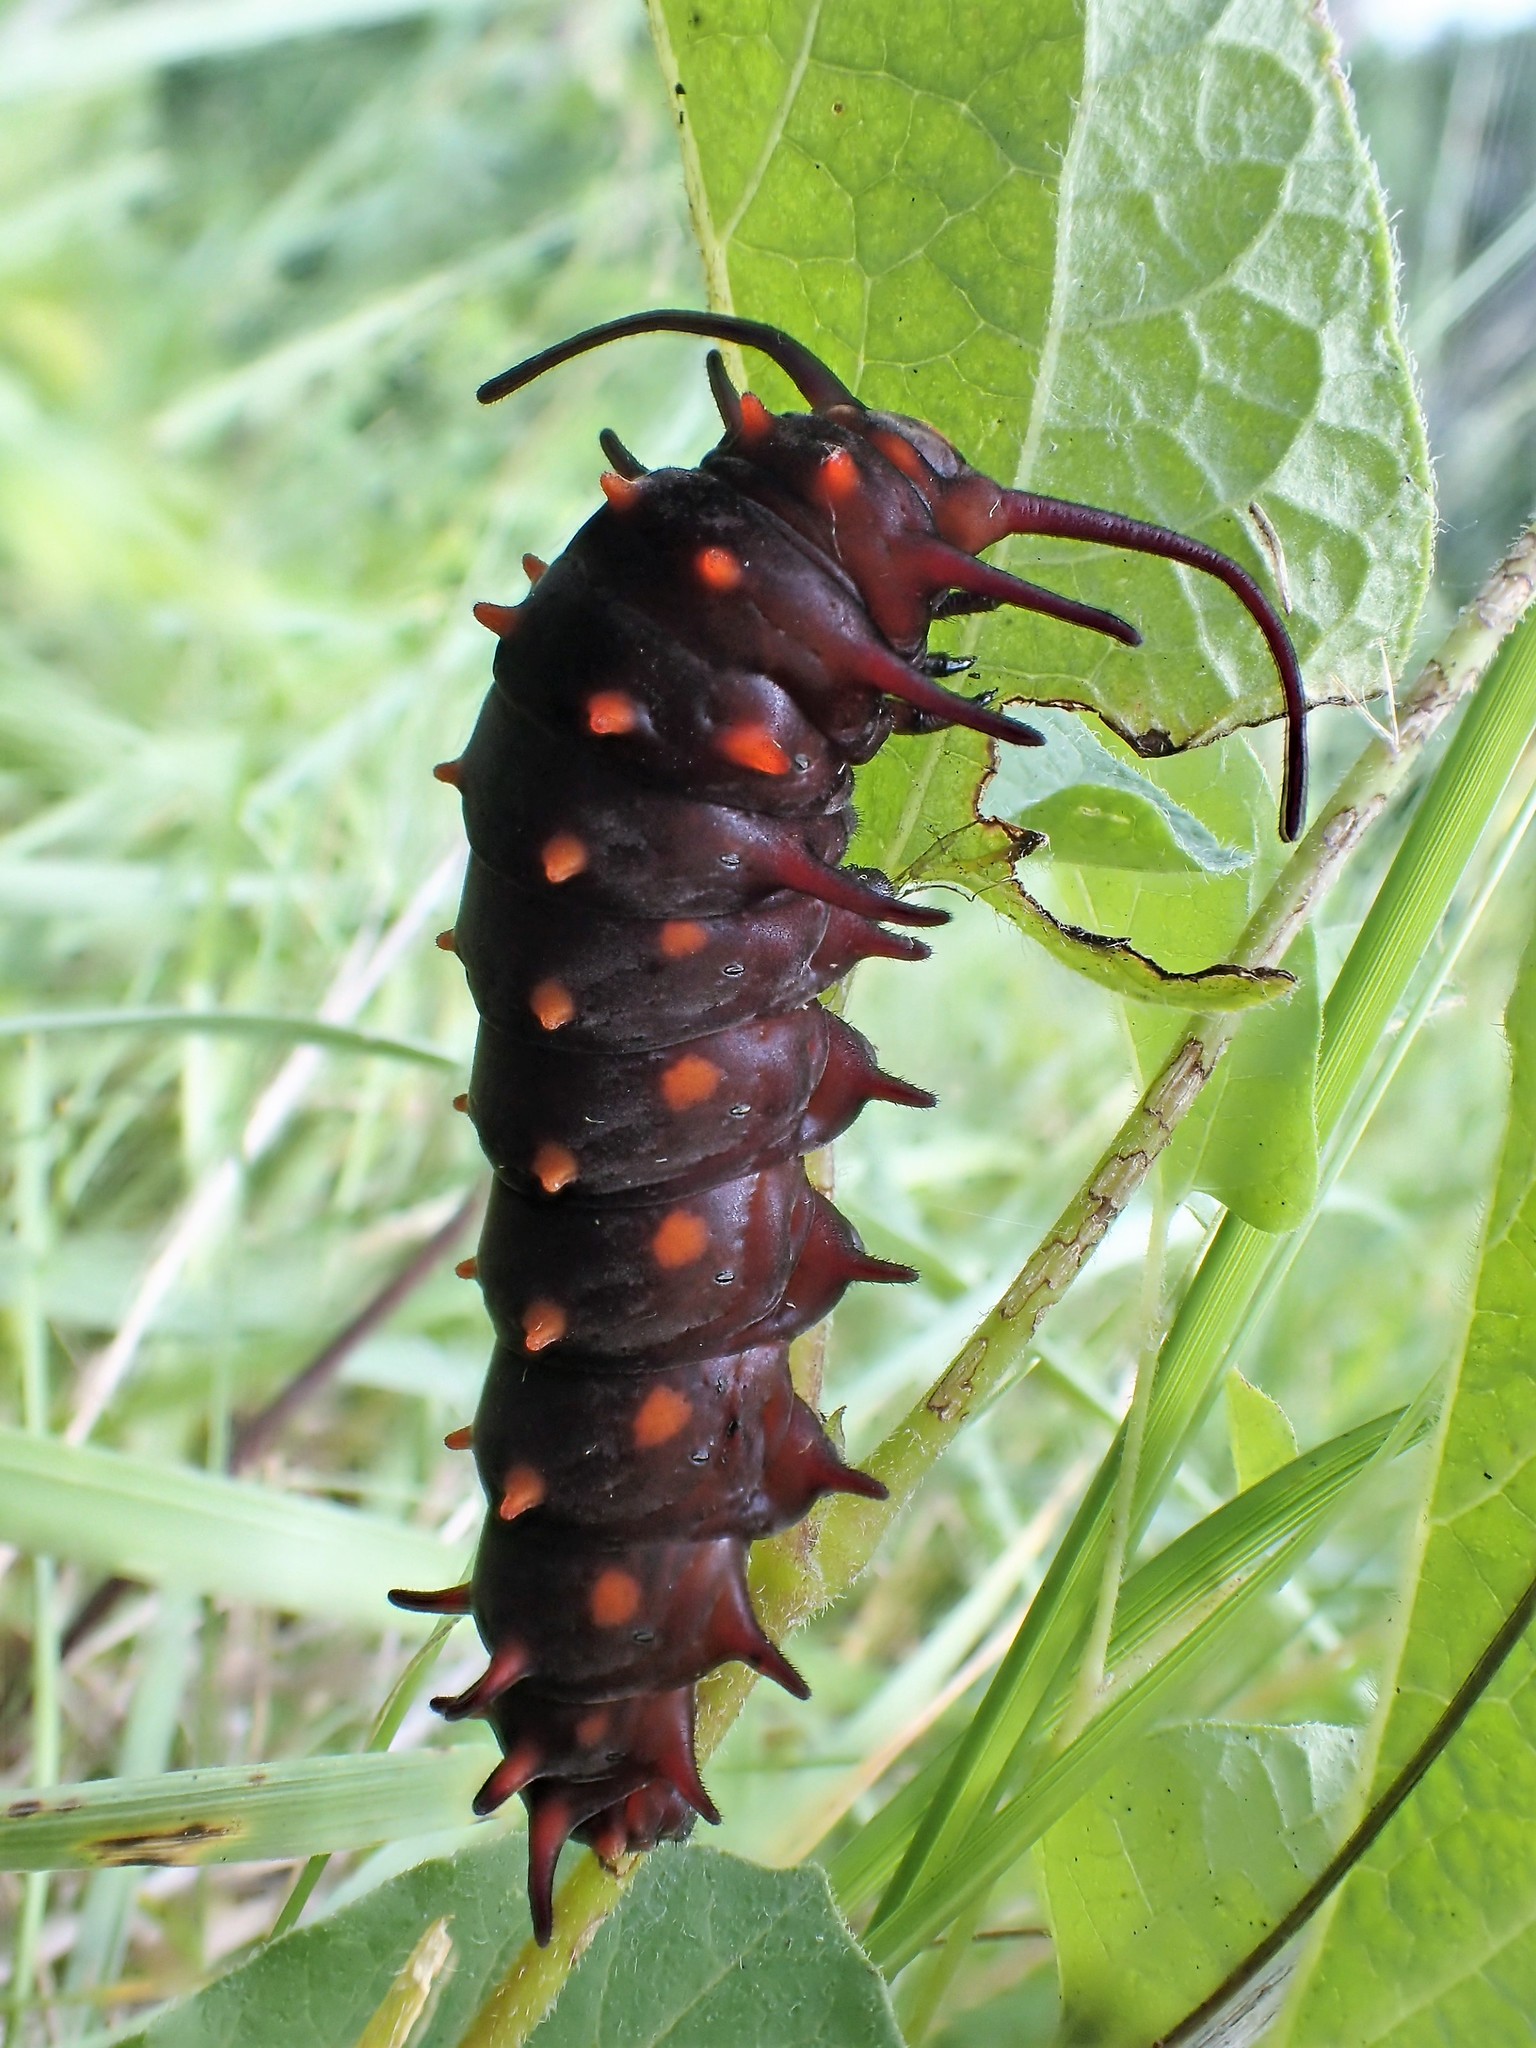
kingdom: Animalia
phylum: Arthropoda
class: Insecta
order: Lepidoptera
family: Papilionidae
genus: Battus
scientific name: Battus philenor
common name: Pipevine swallowtail
